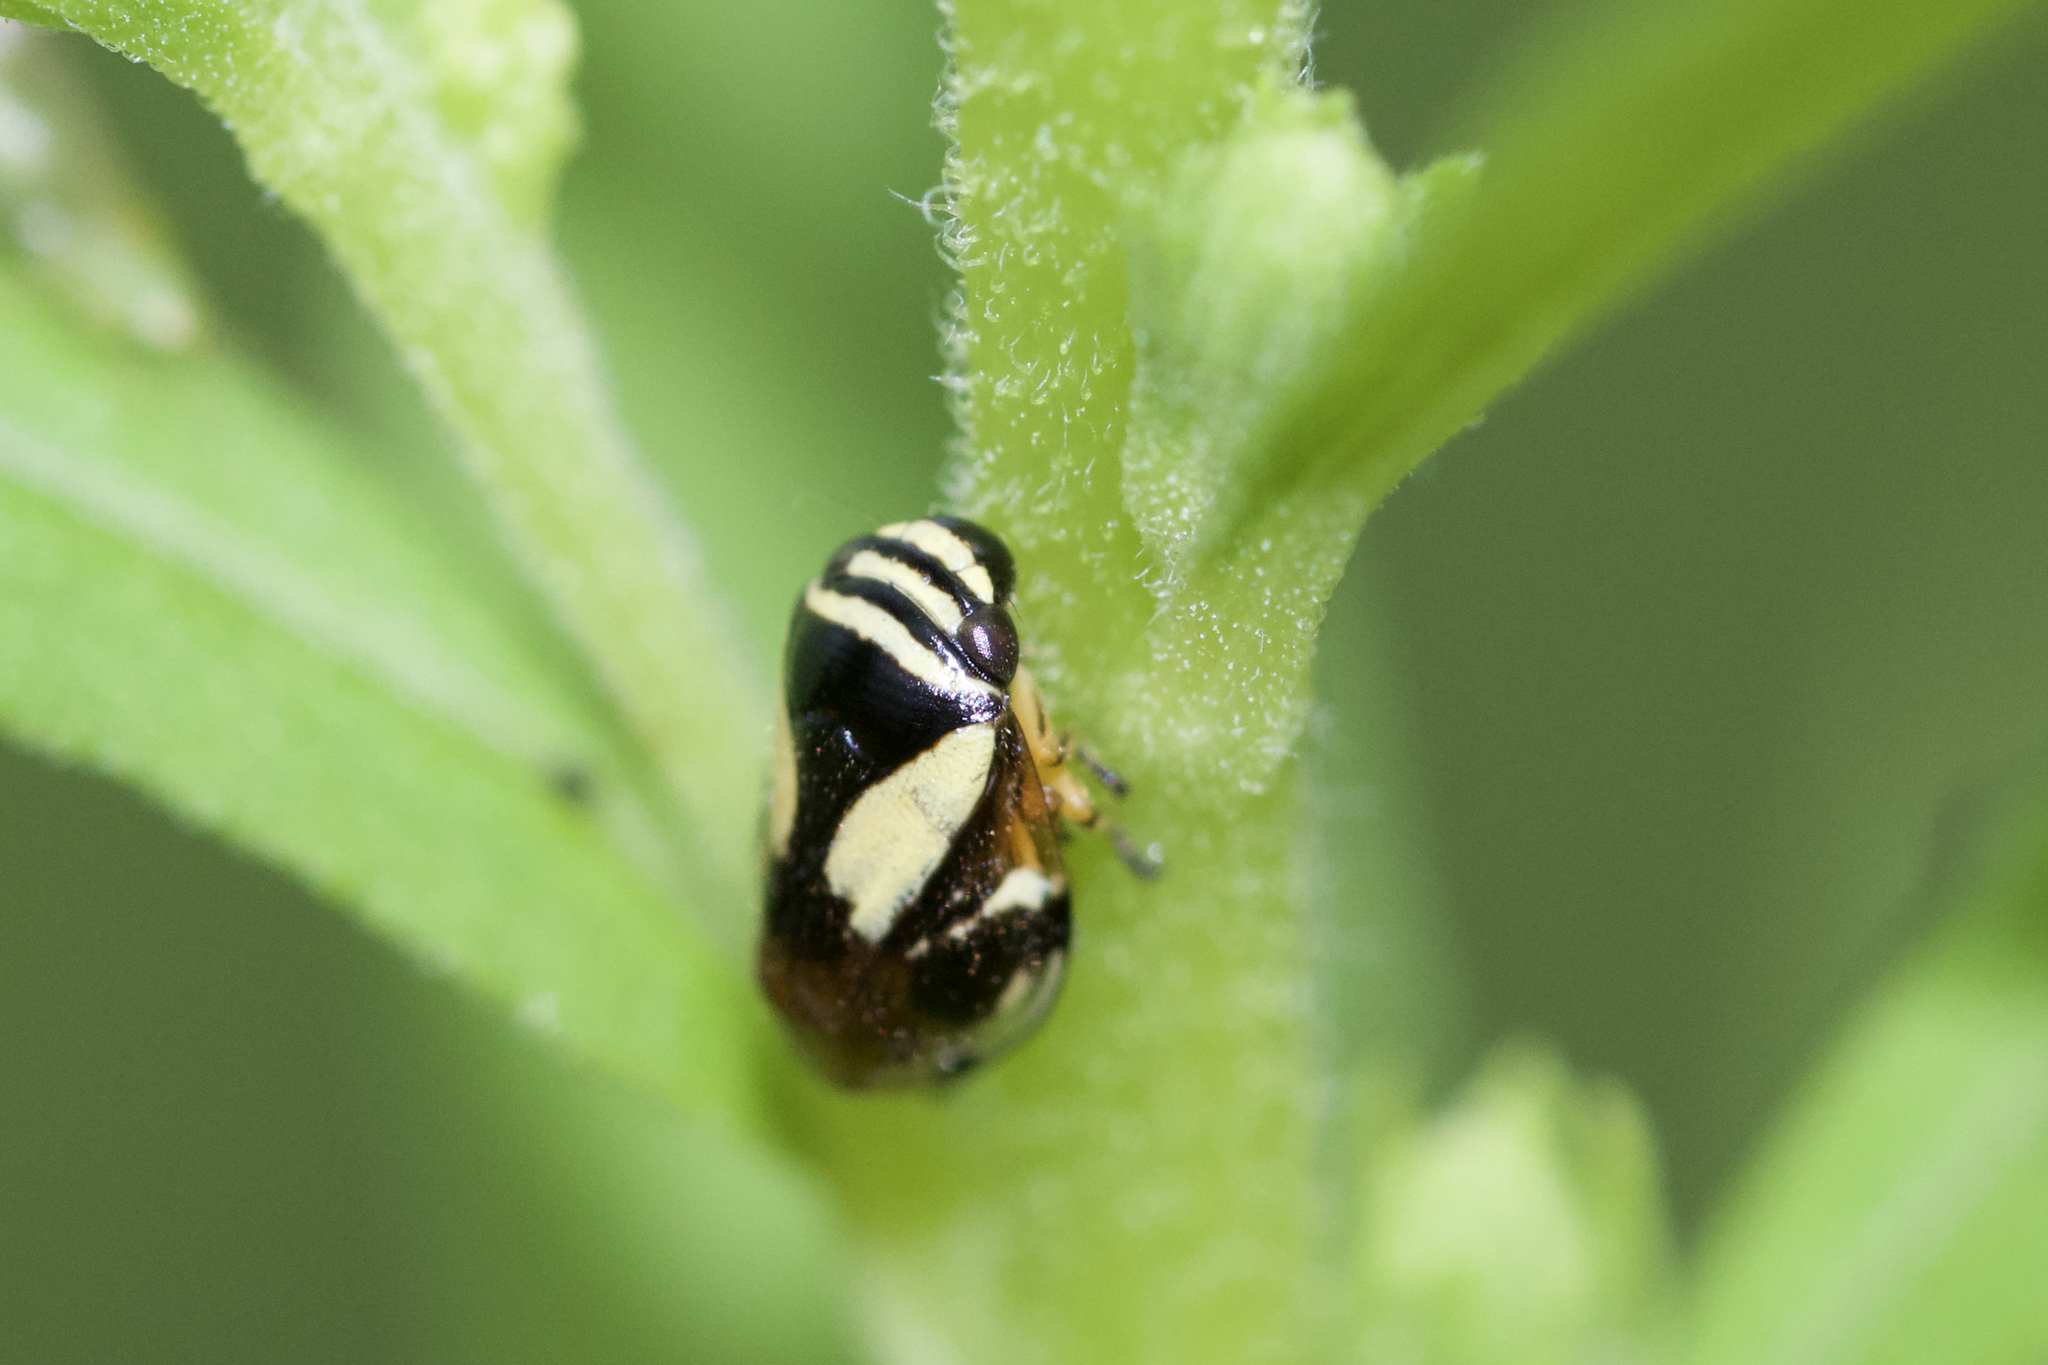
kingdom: Animalia
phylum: Arthropoda
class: Insecta
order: Hemiptera
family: Clastopteridae
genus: Clastoptera
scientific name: Clastoptera proteus
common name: Dogwood spittlebug
